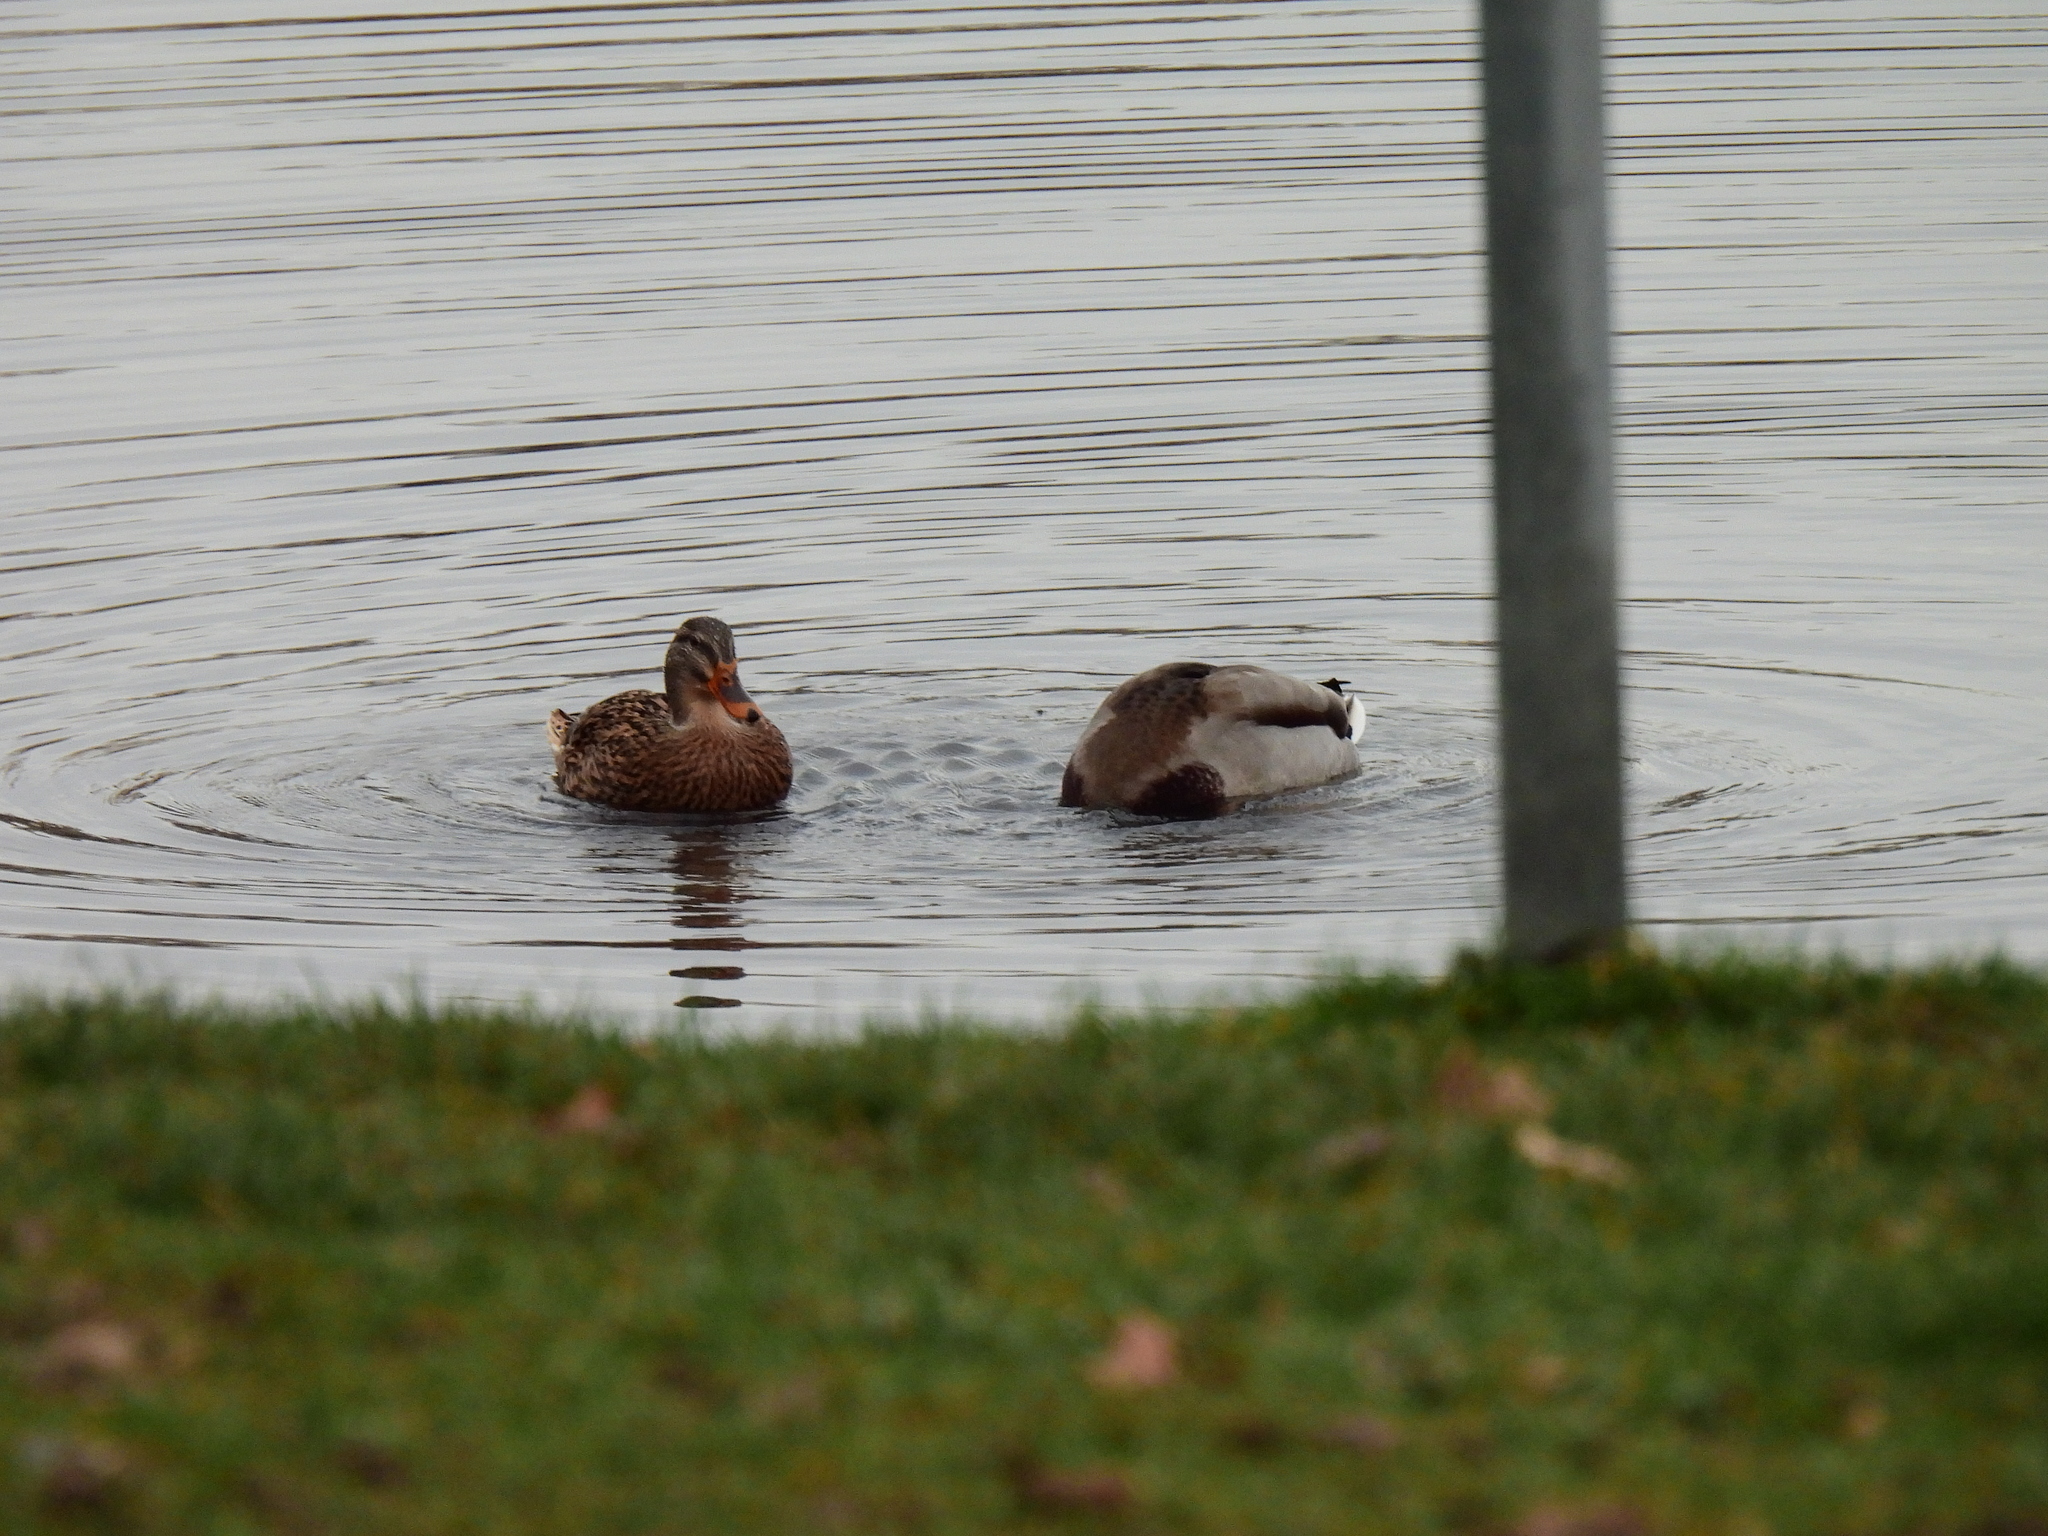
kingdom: Animalia
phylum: Chordata
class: Aves
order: Anseriformes
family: Anatidae
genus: Anas
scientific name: Anas platyrhynchos
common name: Mallard
